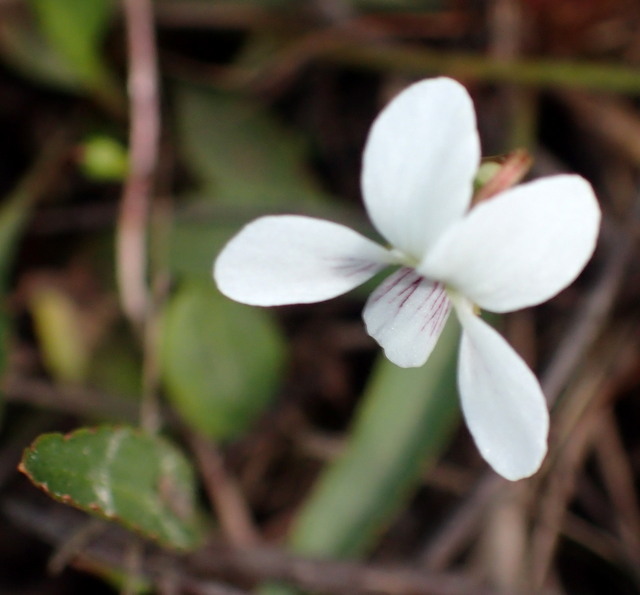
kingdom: Plantae
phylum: Tracheophyta
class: Magnoliopsida
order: Malpighiales
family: Violaceae
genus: Viola
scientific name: Viola lanceolata
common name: Bog white violet
